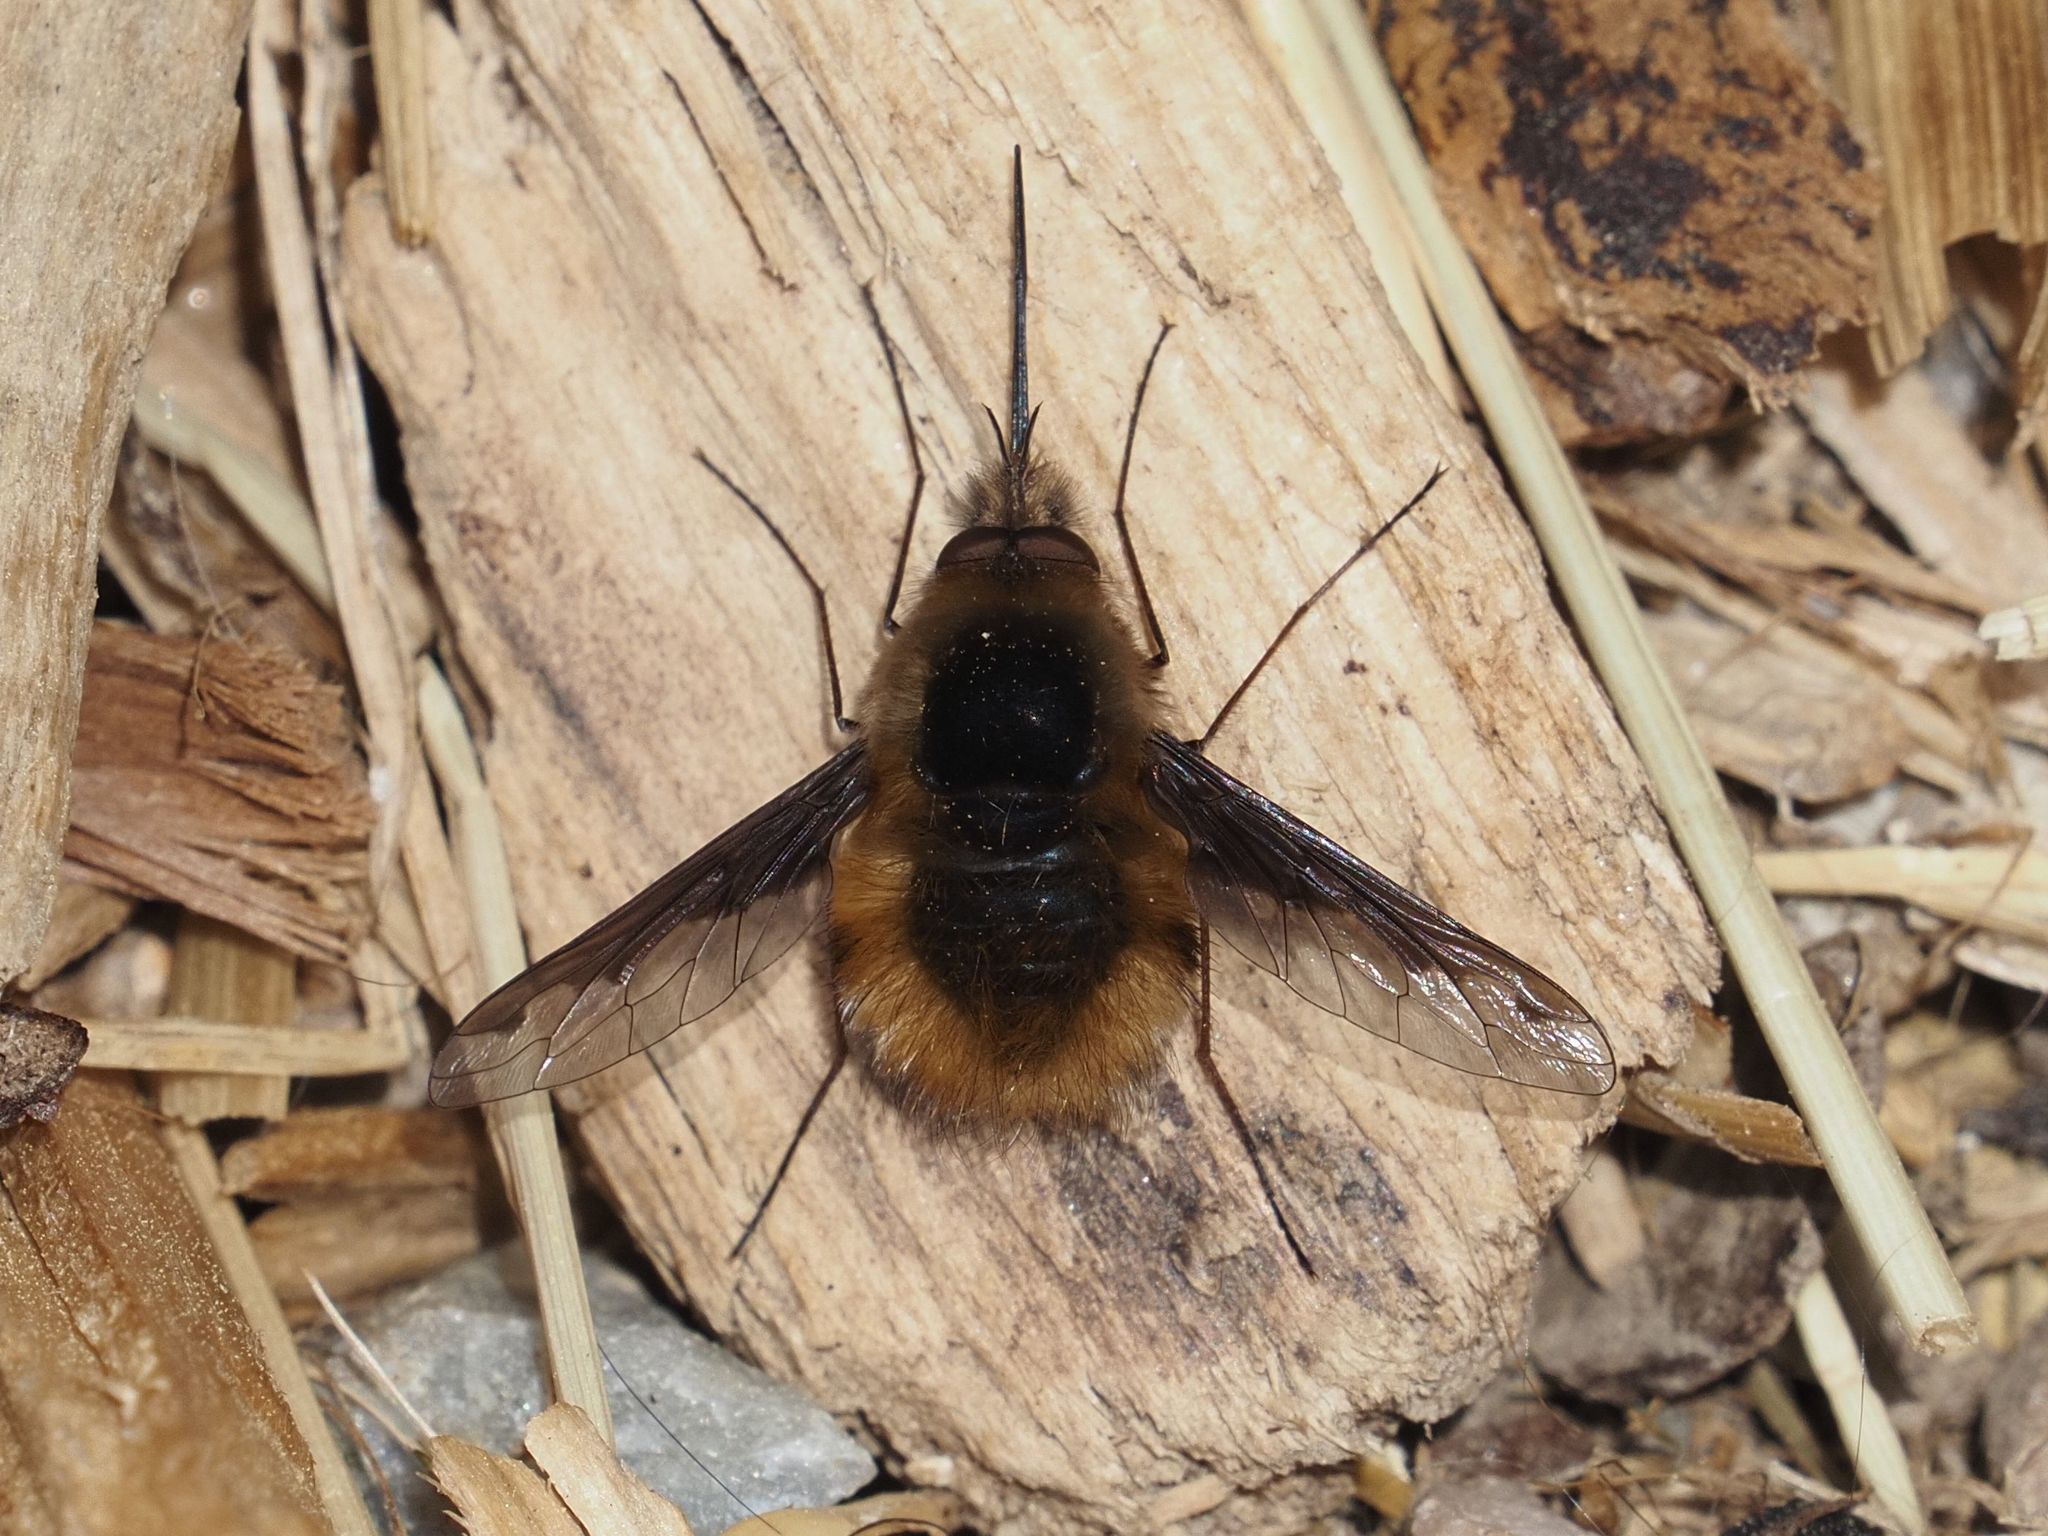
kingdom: Animalia
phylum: Arthropoda
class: Insecta
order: Diptera
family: Bombyliidae
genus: Bombylius
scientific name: Bombylius major
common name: Bee fly
